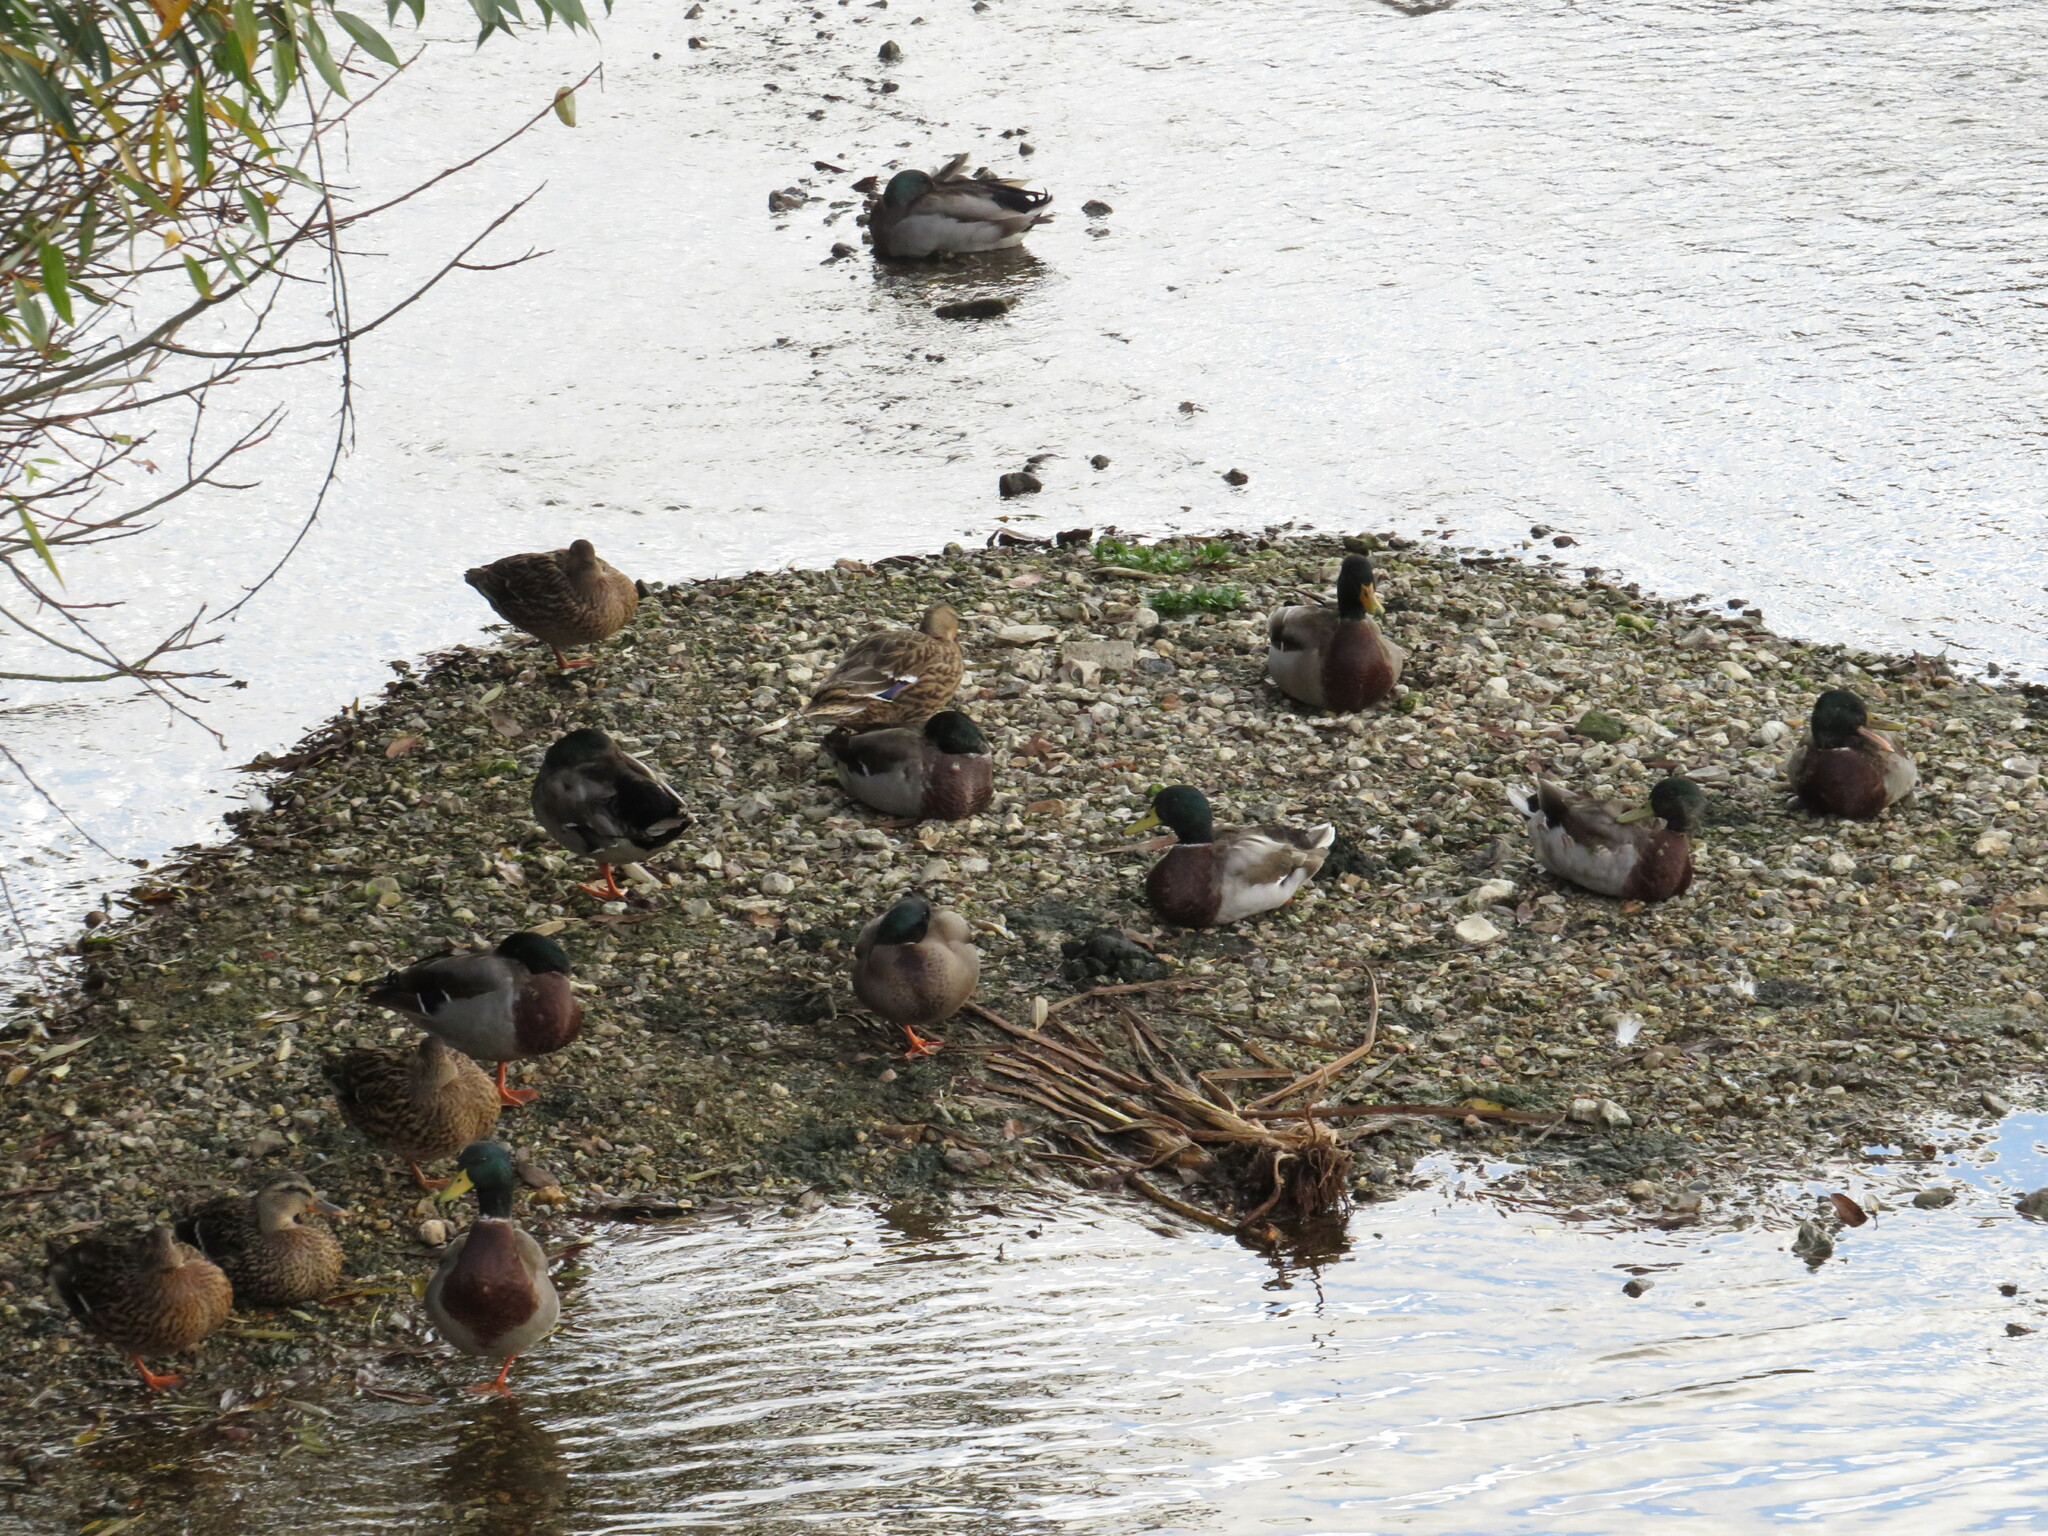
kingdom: Animalia
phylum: Chordata
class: Aves
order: Anseriformes
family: Anatidae
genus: Anas
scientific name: Anas platyrhynchos
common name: Mallard
